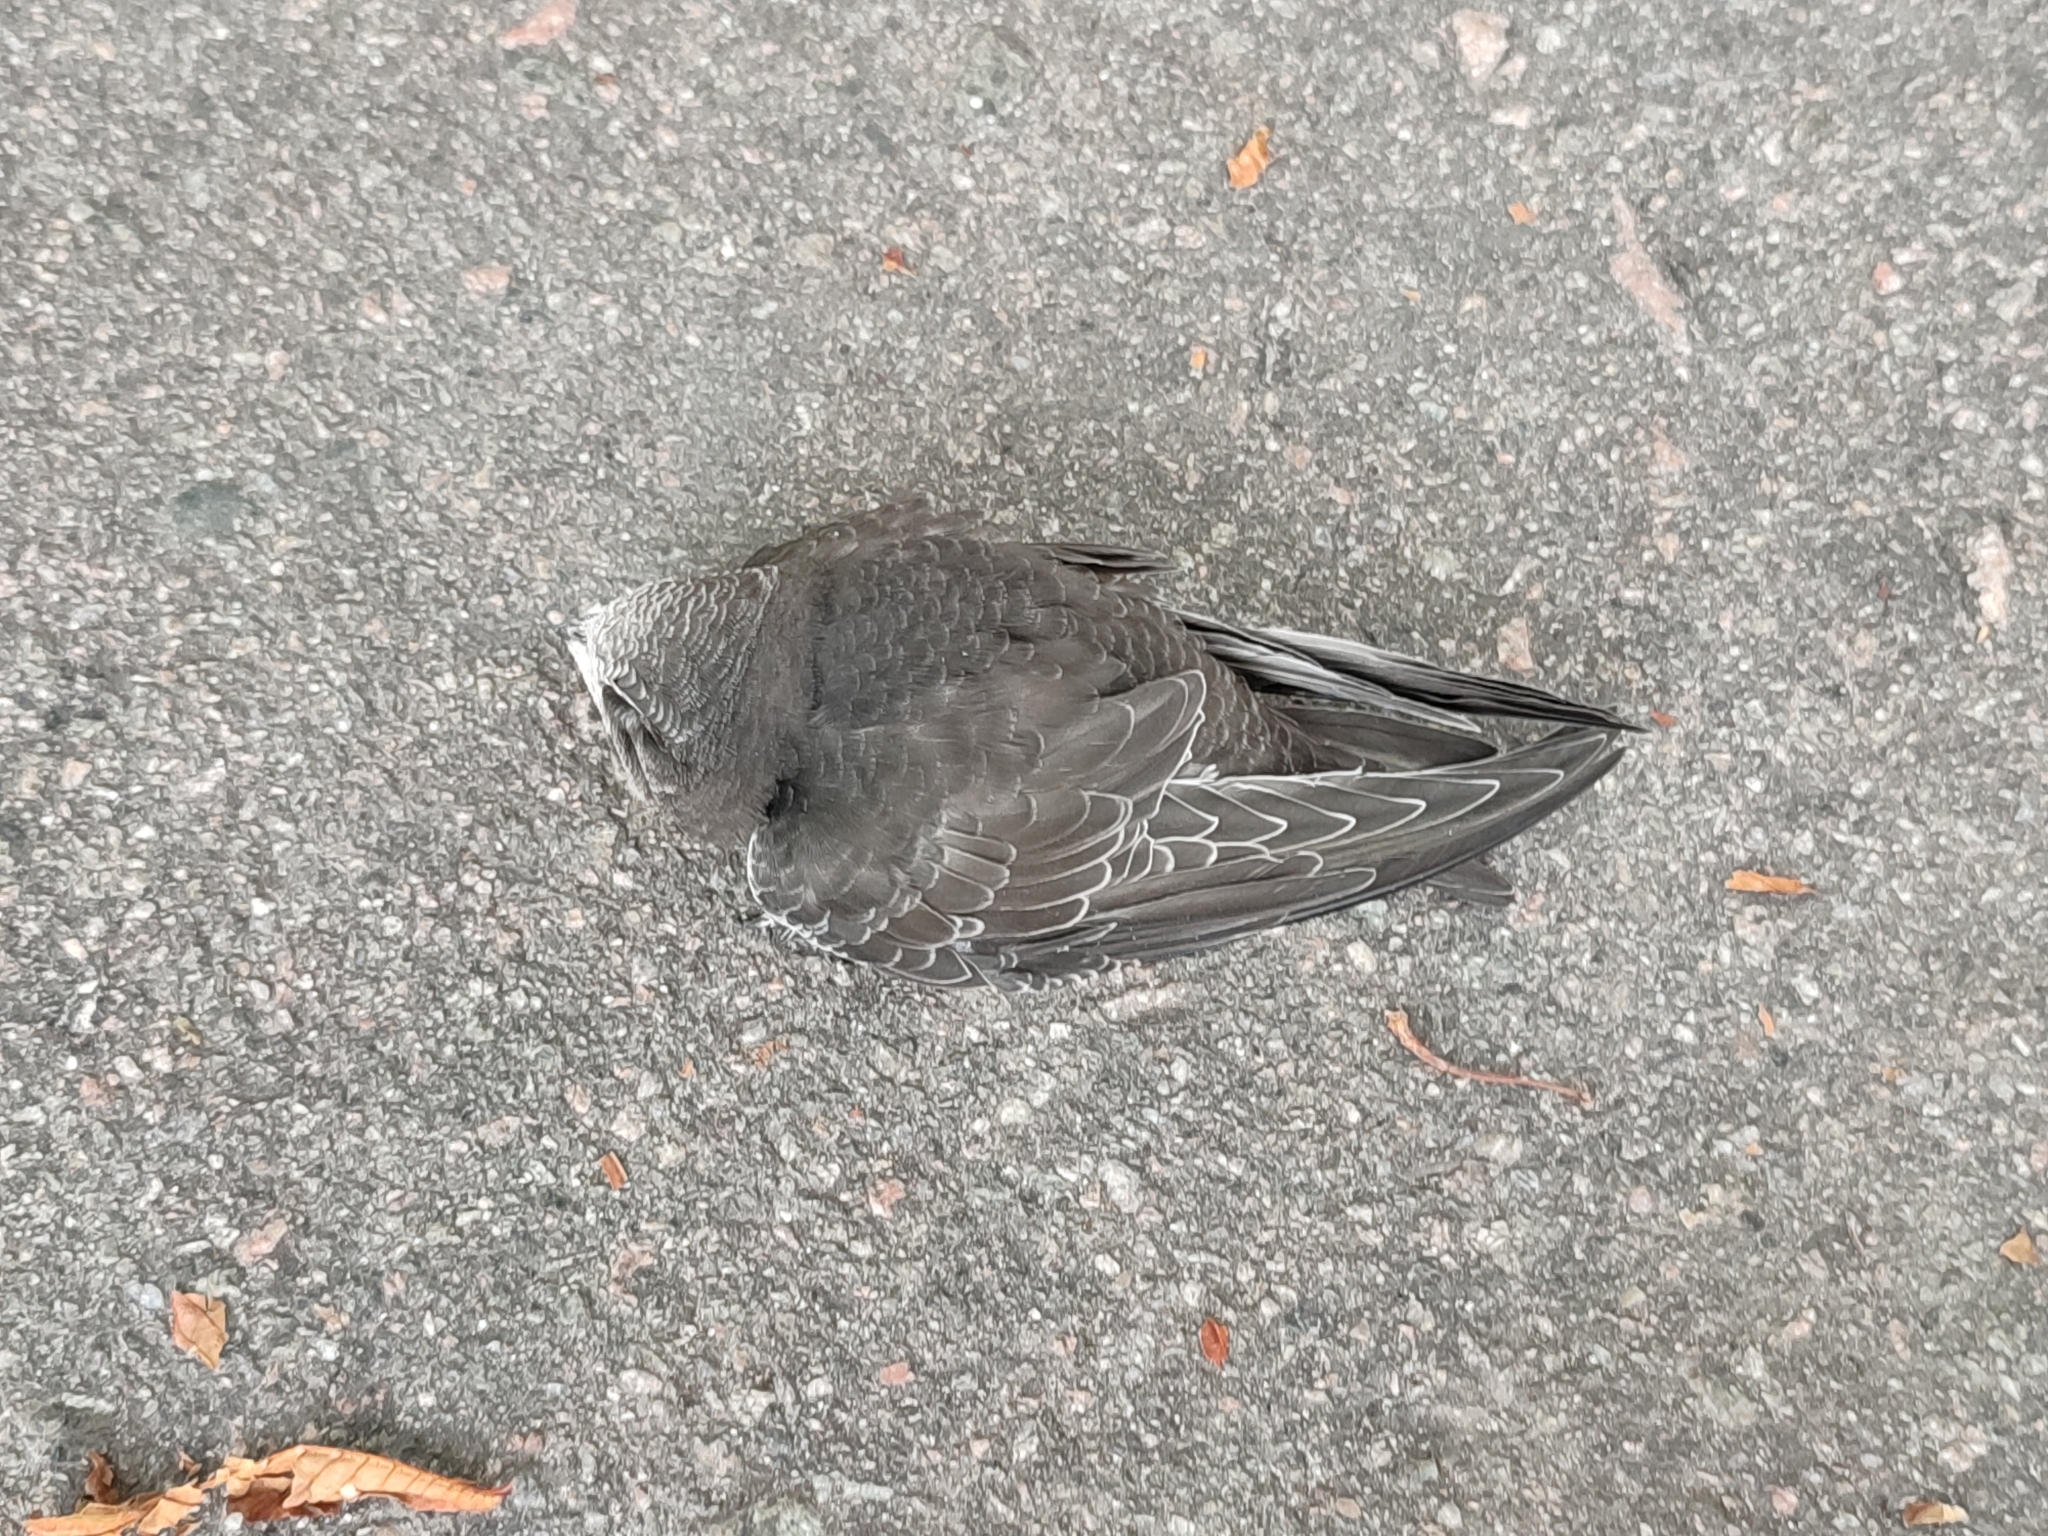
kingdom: Animalia
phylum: Chordata
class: Aves
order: Apodiformes
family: Apodidae
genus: Apus
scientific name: Apus apus
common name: Common swift
